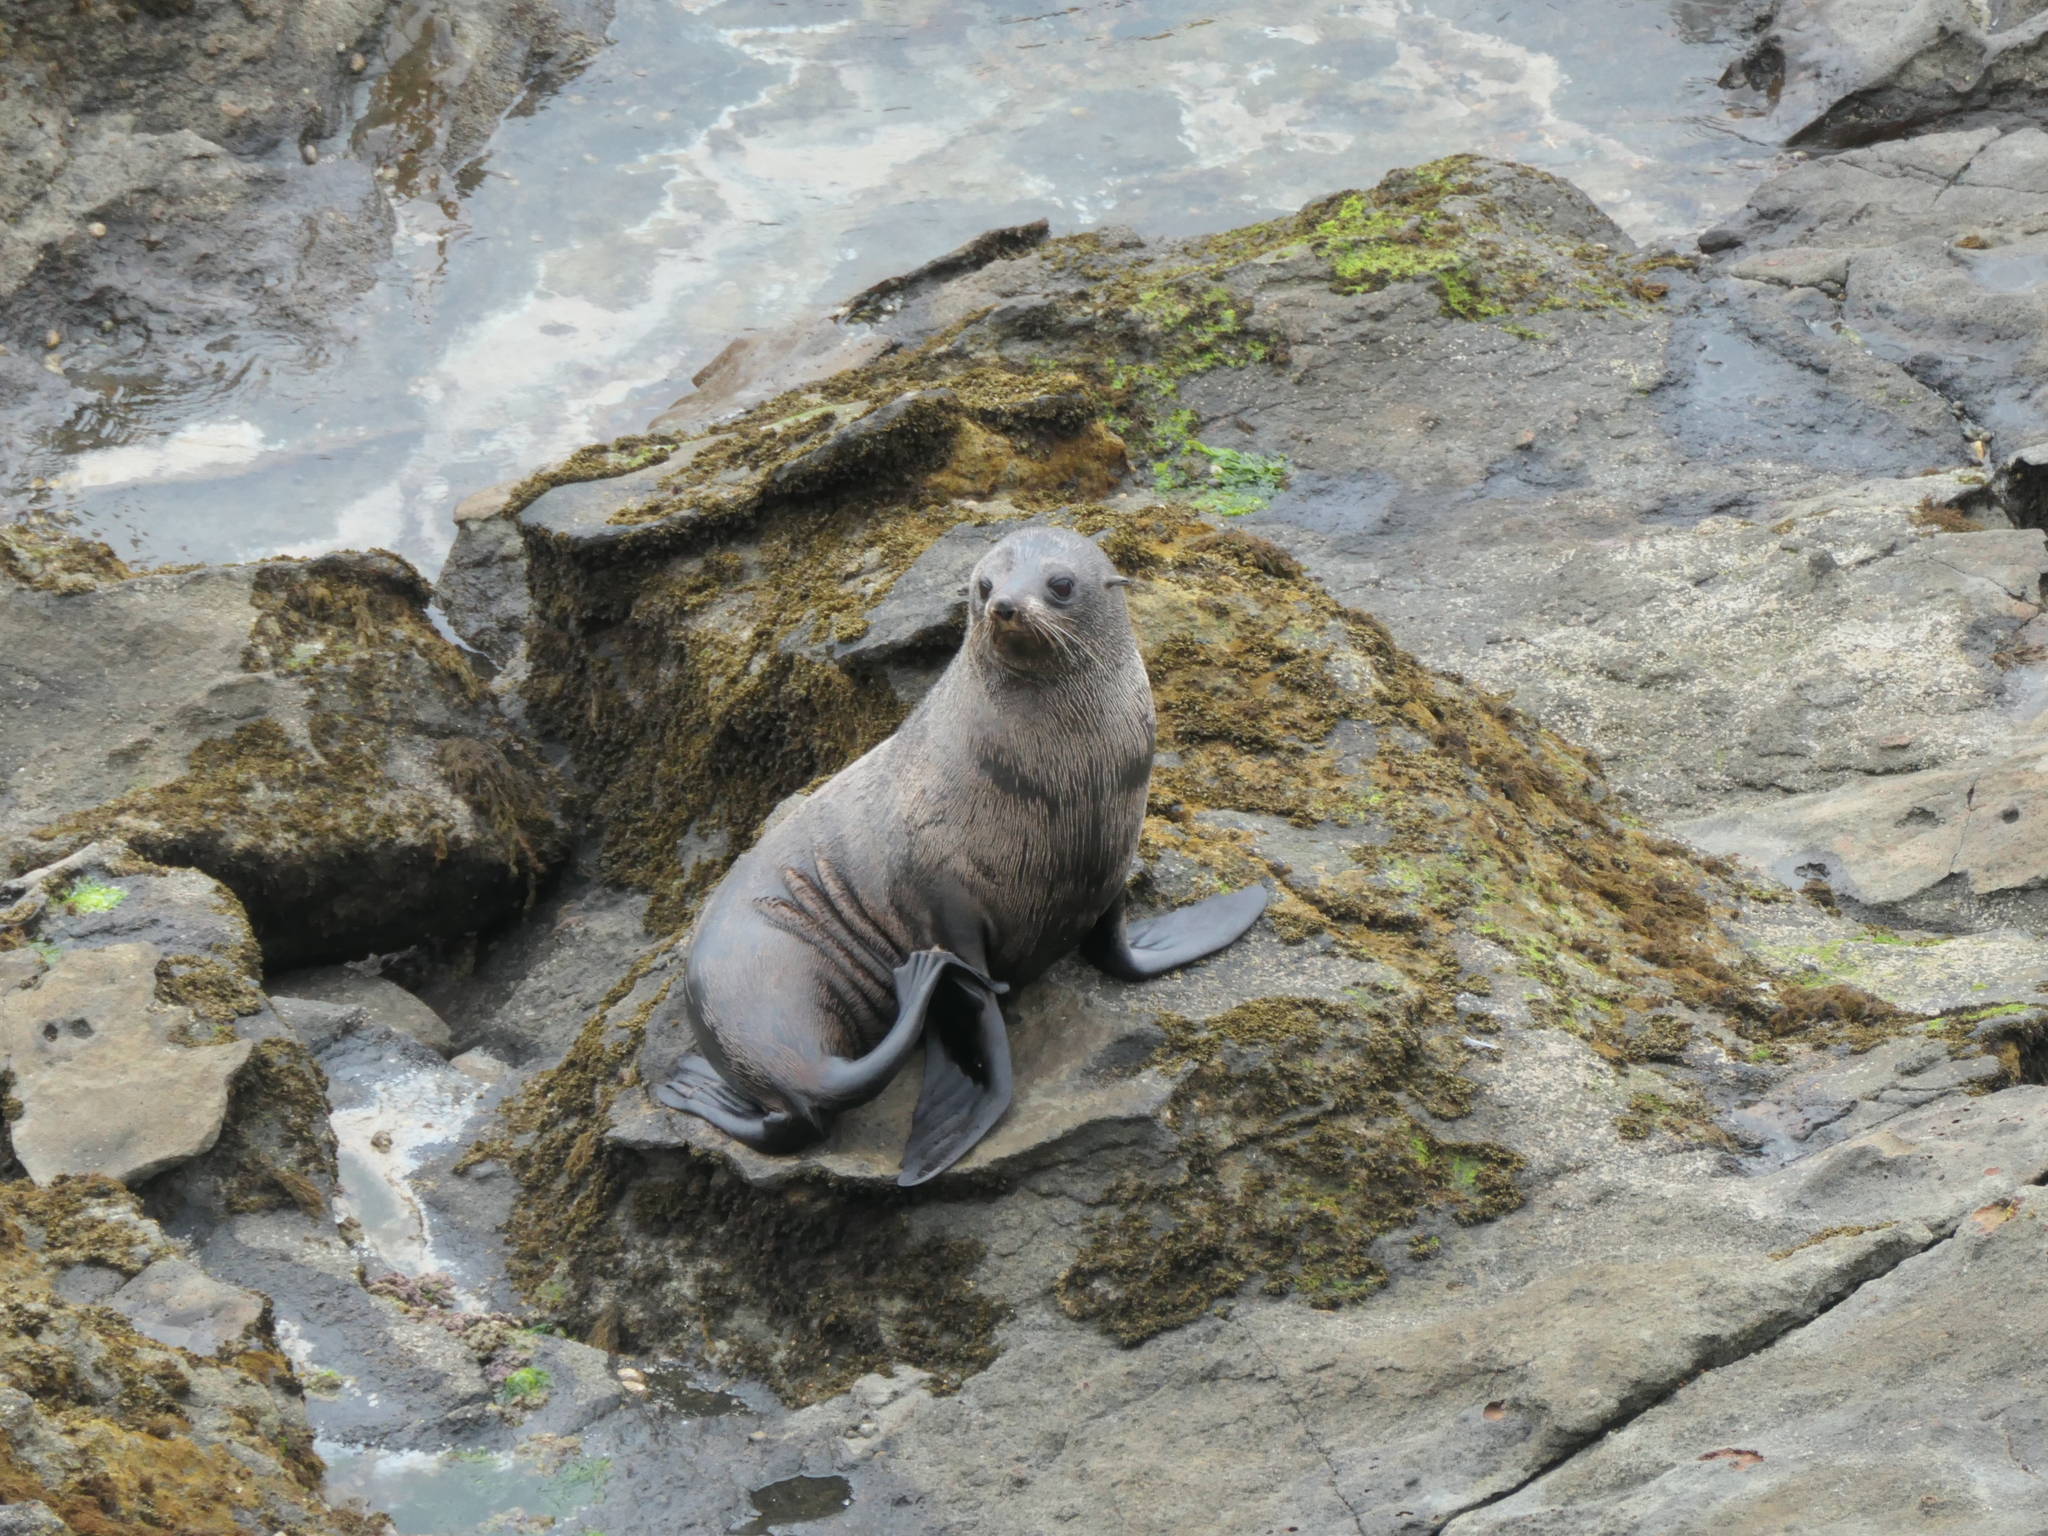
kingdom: Animalia
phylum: Chordata
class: Mammalia
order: Carnivora
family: Otariidae
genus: Arctocephalus
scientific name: Arctocephalus forsteri
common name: New zealand fur seal
